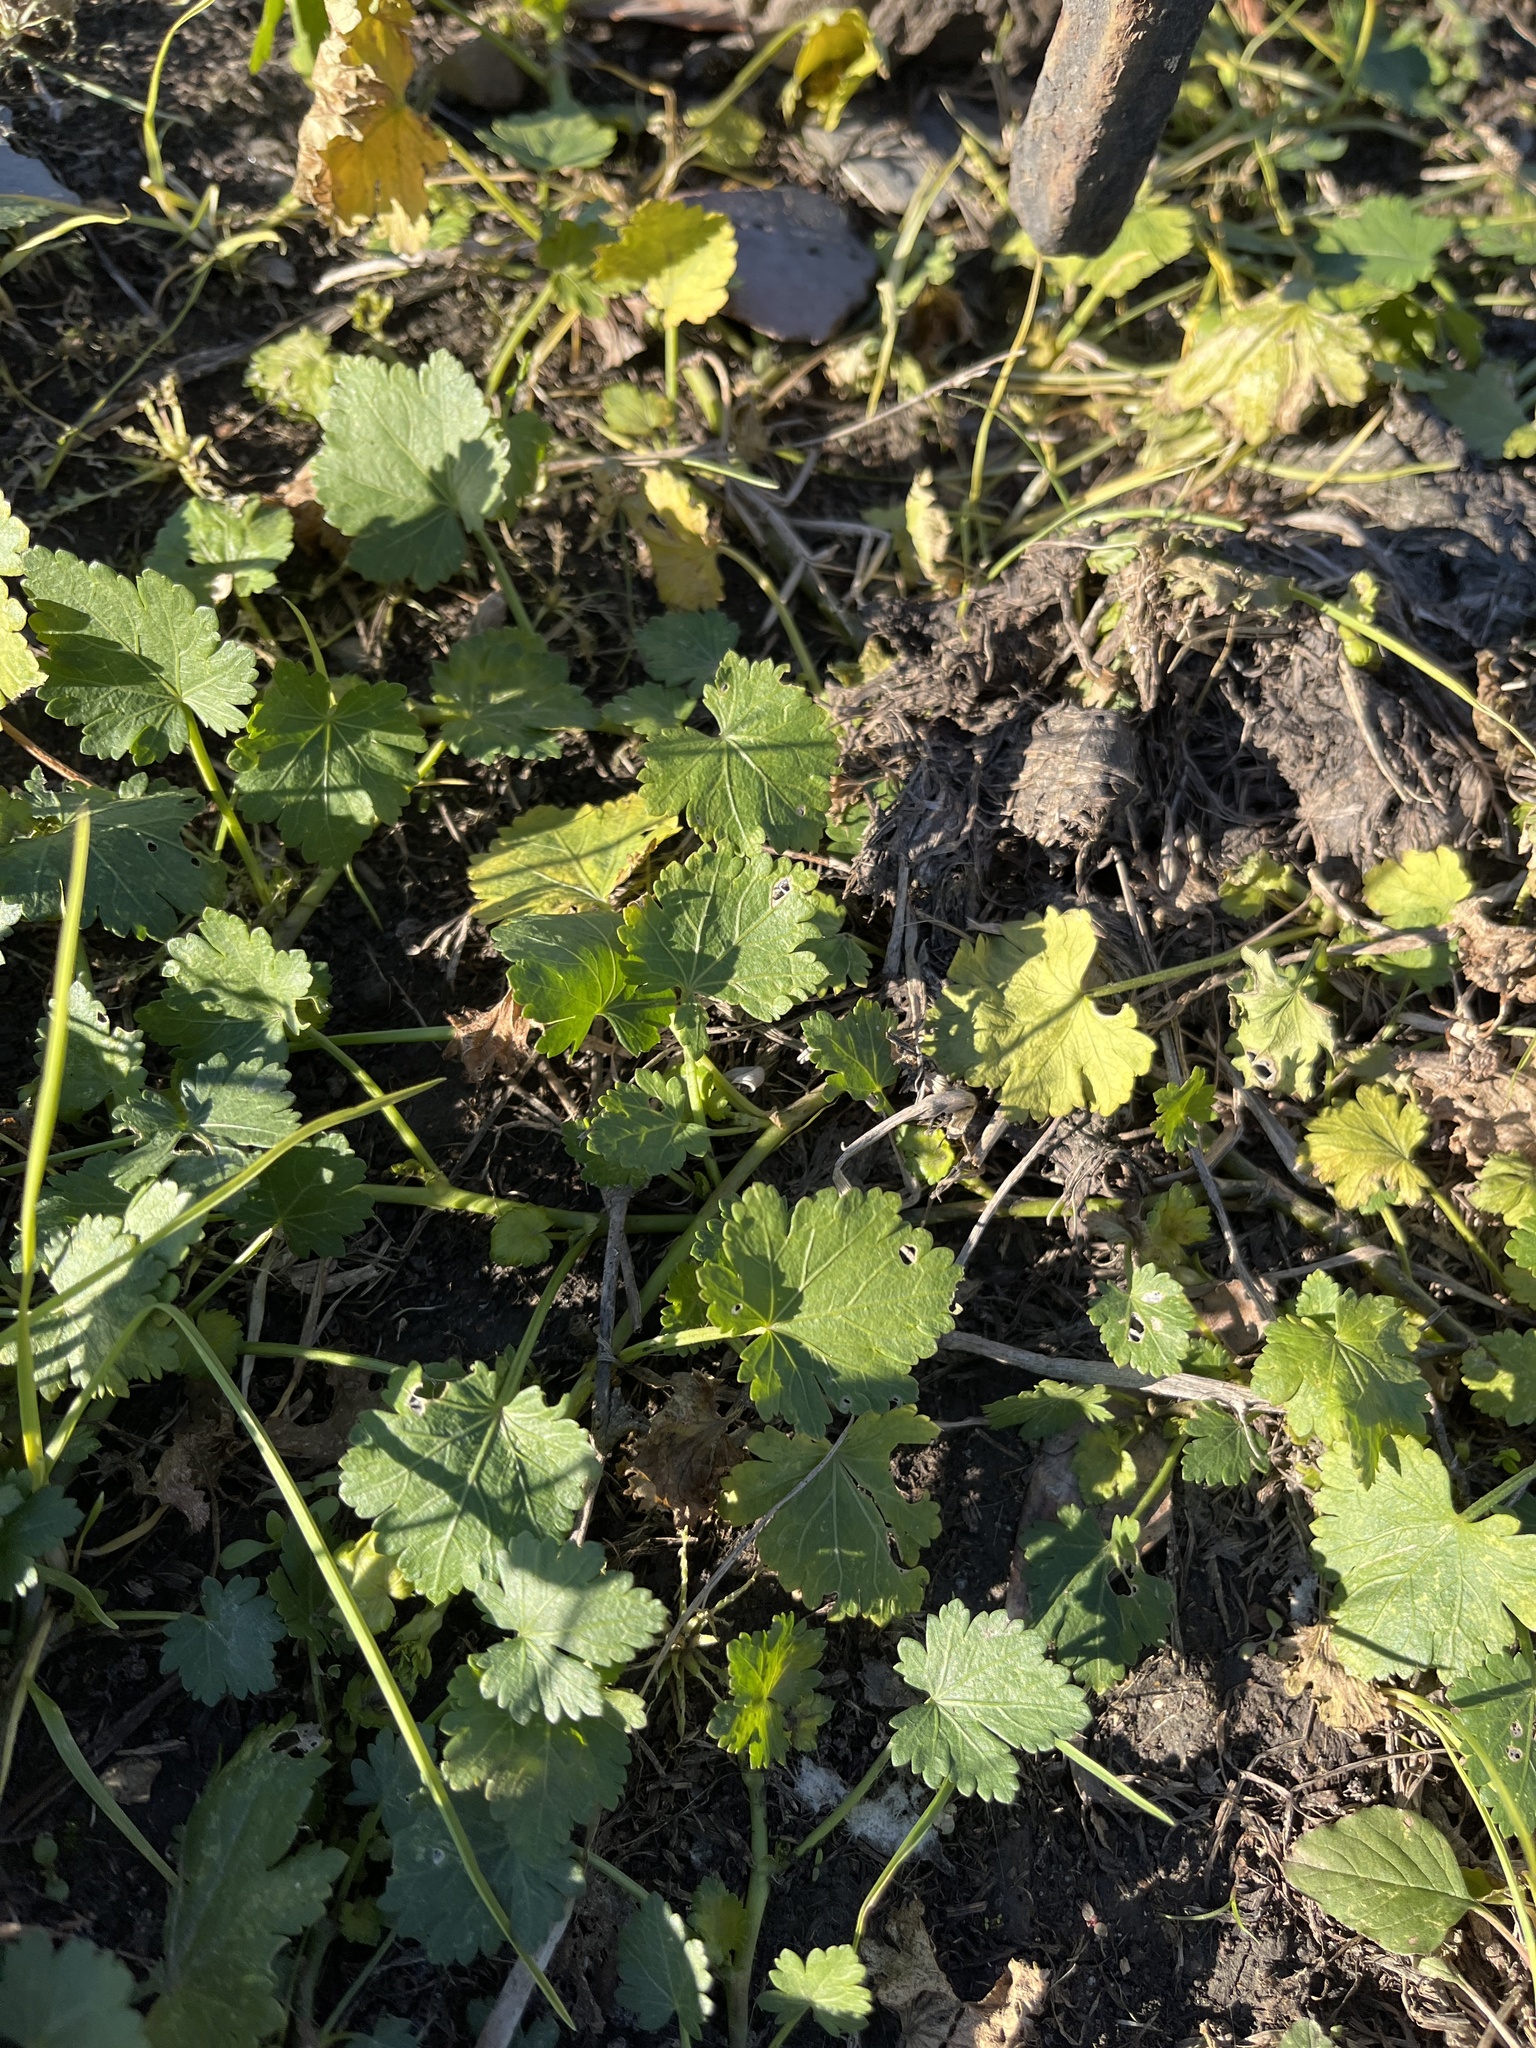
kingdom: Plantae
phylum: Tracheophyta
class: Magnoliopsida
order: Malvales
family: Malvaceae
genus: Modiola
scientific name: Modiola caroliniana
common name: Carolina bristlemallow
